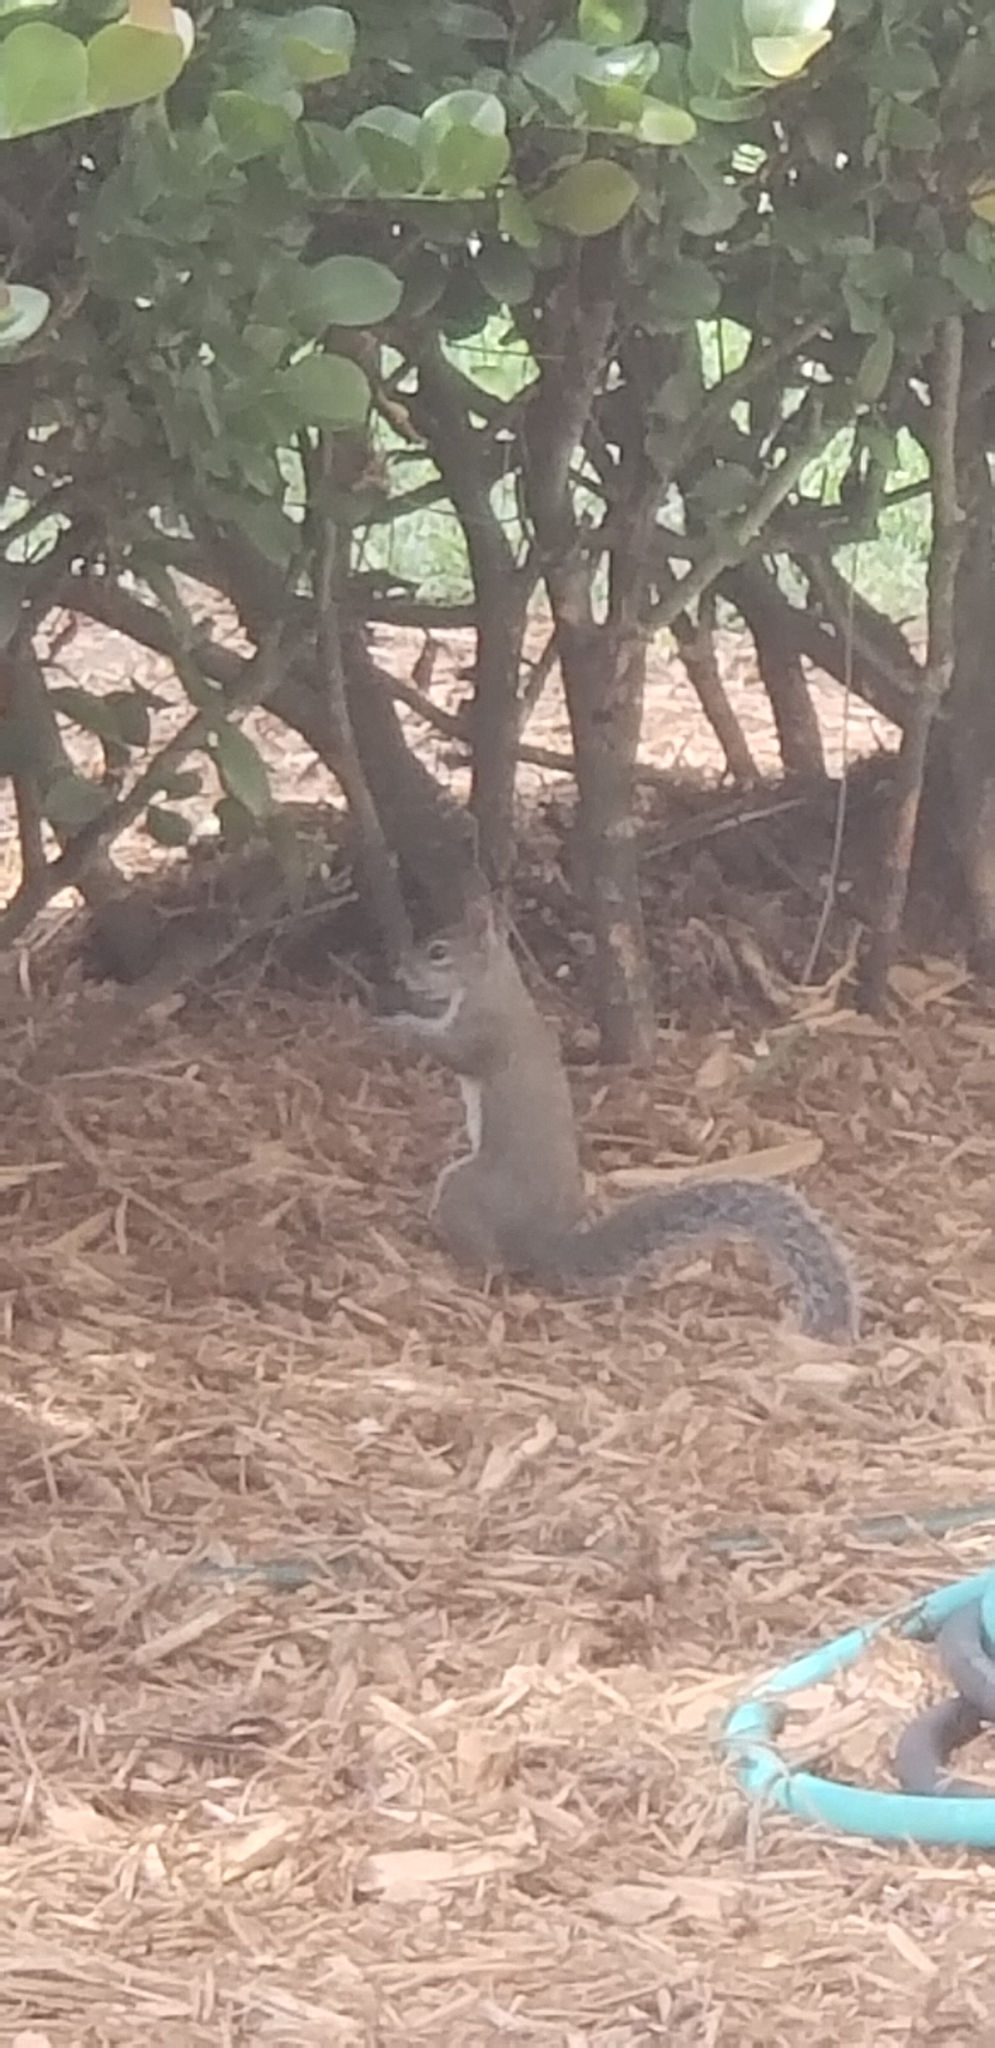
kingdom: Animalia
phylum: Chordata
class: Mammalia
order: Rodentia
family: Sciuridae
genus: Sciurus
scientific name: Sciurus carolinensis
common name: Eastern gray squirrel
